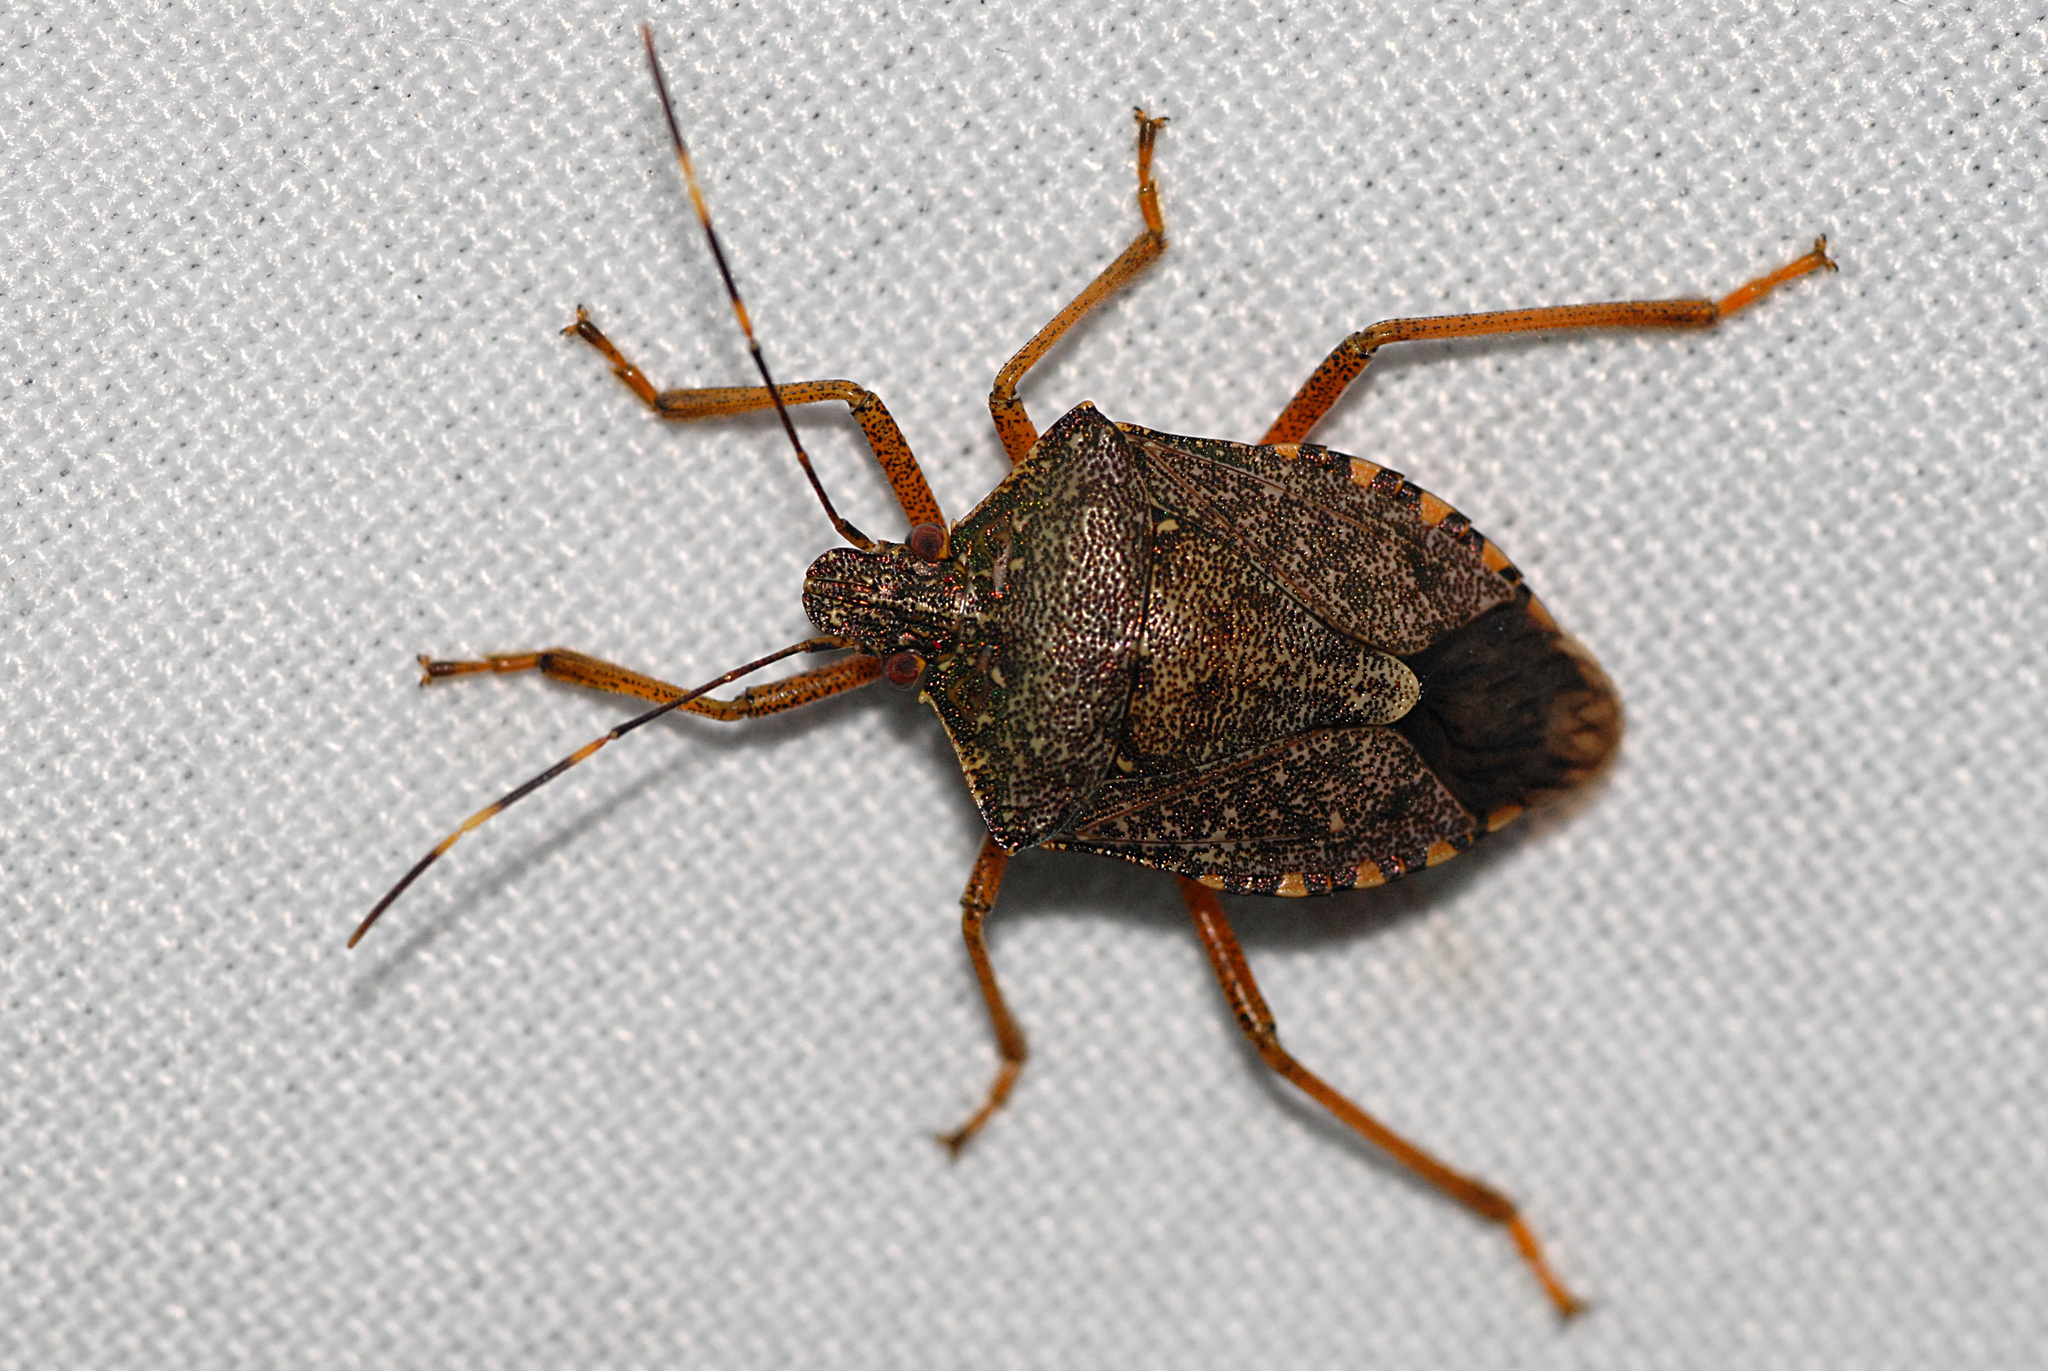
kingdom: Animalia
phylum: Arthropoda
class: Insecta
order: Hemiptera
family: Pentatomidae
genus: Halyomorpha
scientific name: Halyomorpha halys
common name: Brown marmorated stink bug
